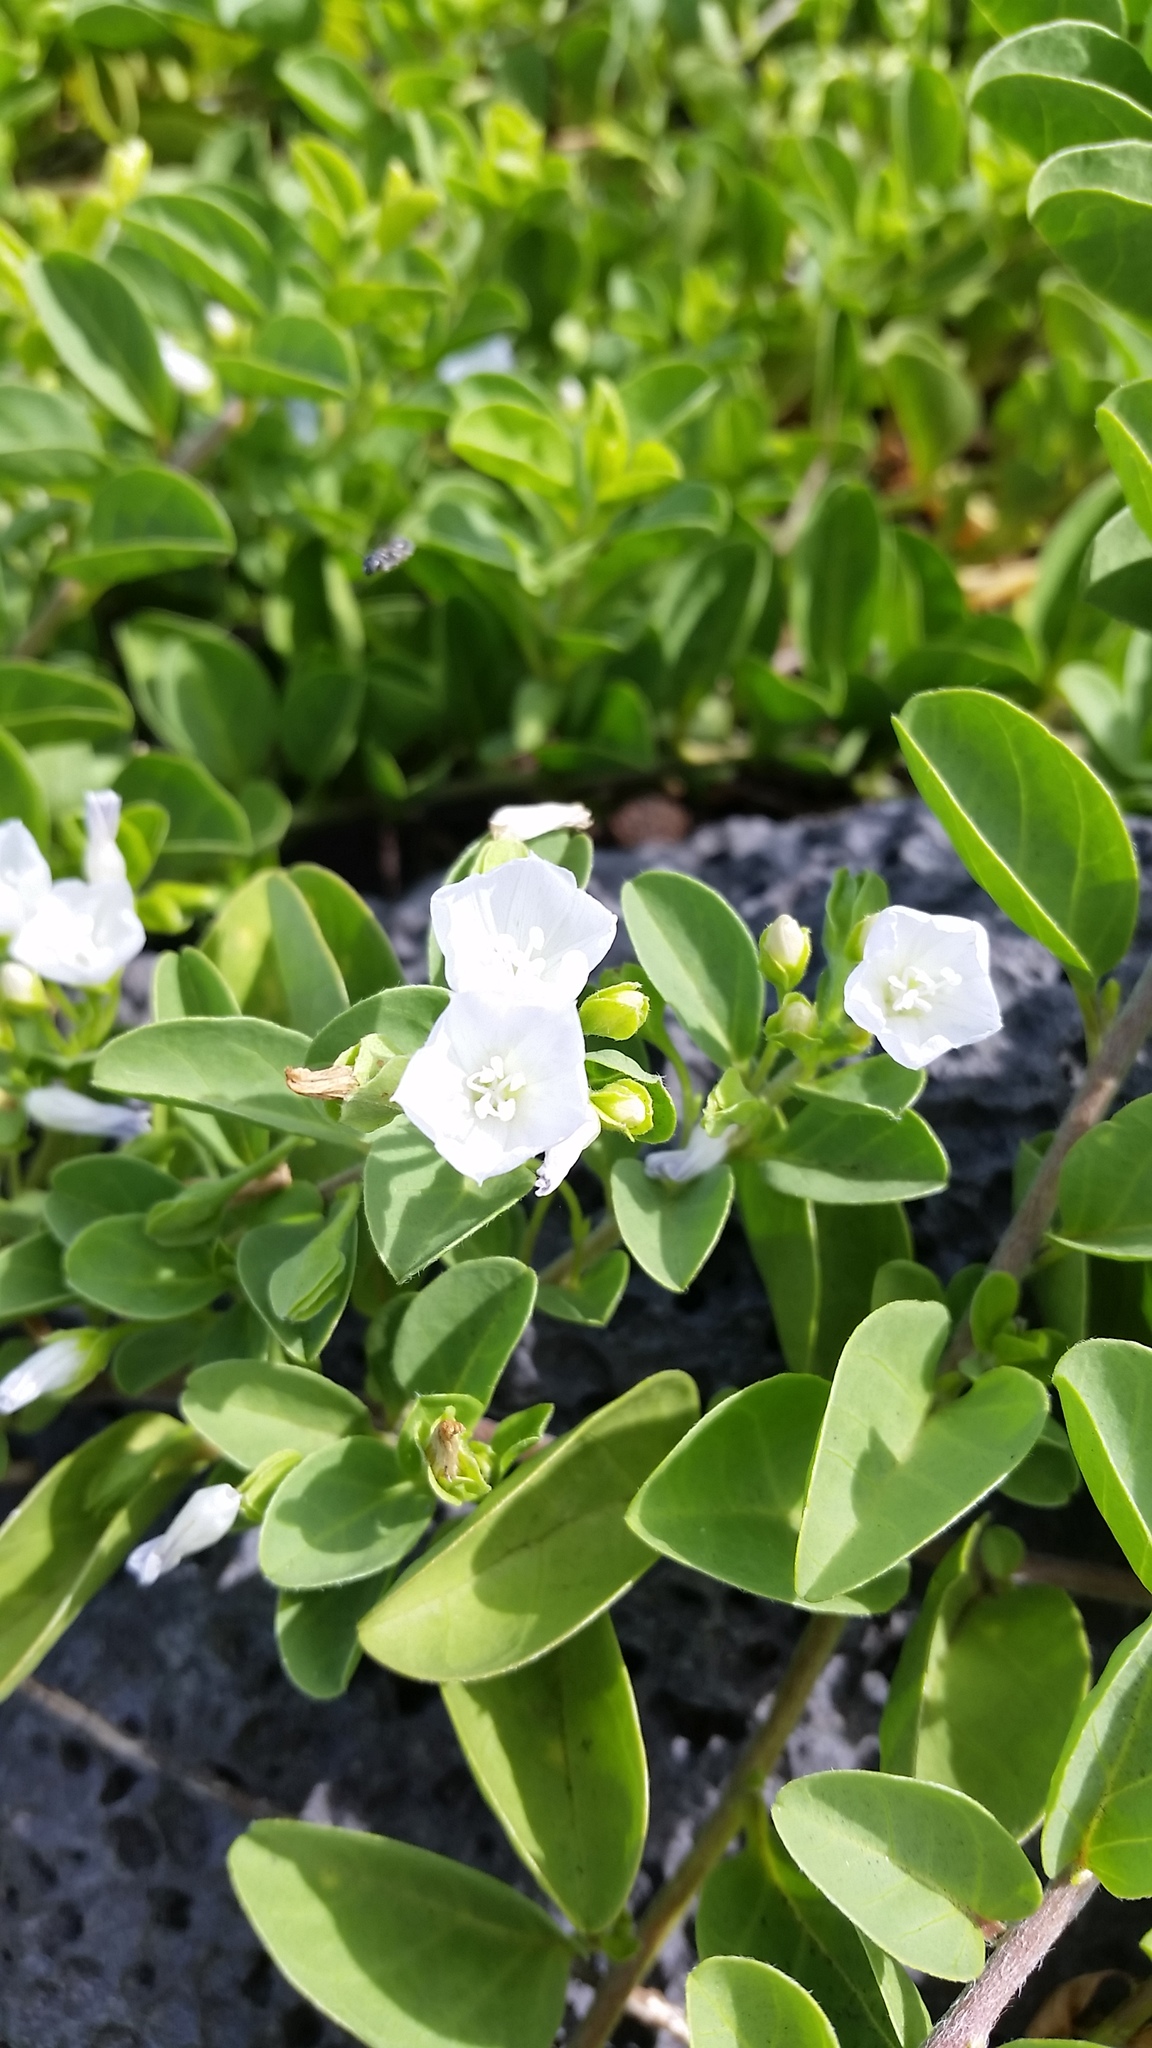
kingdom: Plantae
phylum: Tracheophyta
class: Magnoliopsida
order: Solanales
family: Convolvulaceae
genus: Jacquemontia
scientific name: Jacquemontia sandwicensis
